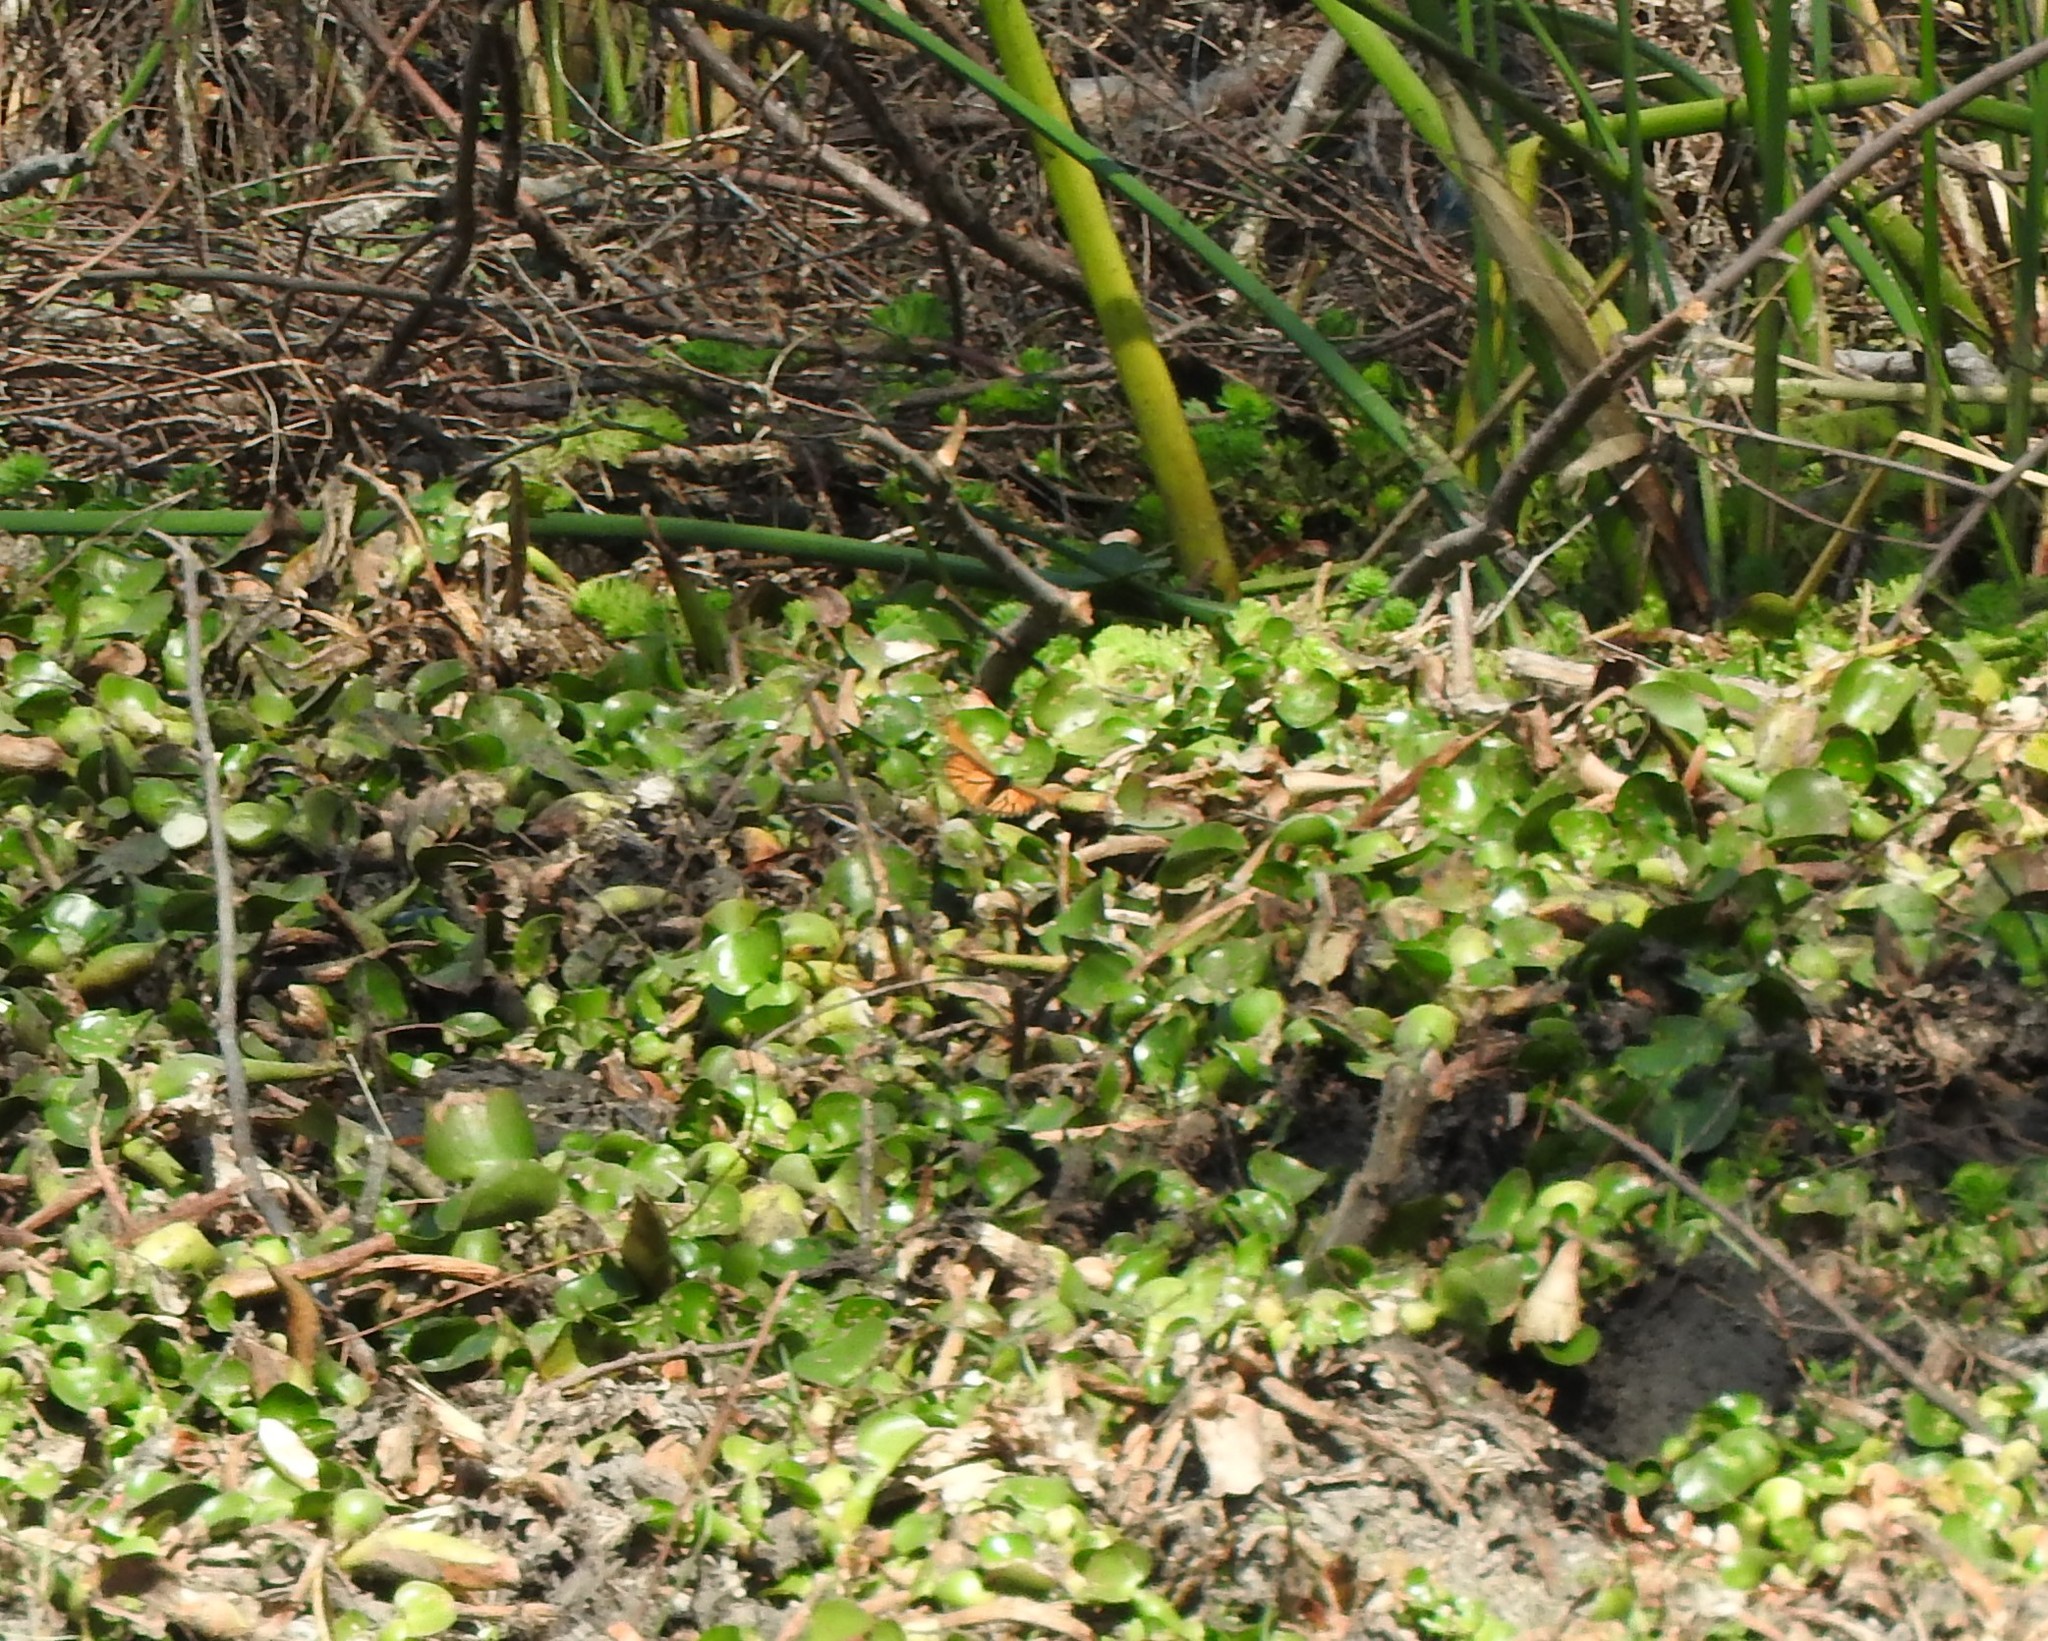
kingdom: Animalia
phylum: Arthropoda
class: Insecta
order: Lepidoptera
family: Nymphalidae
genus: Danaus
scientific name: Danaus plexippus
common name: Monarch
